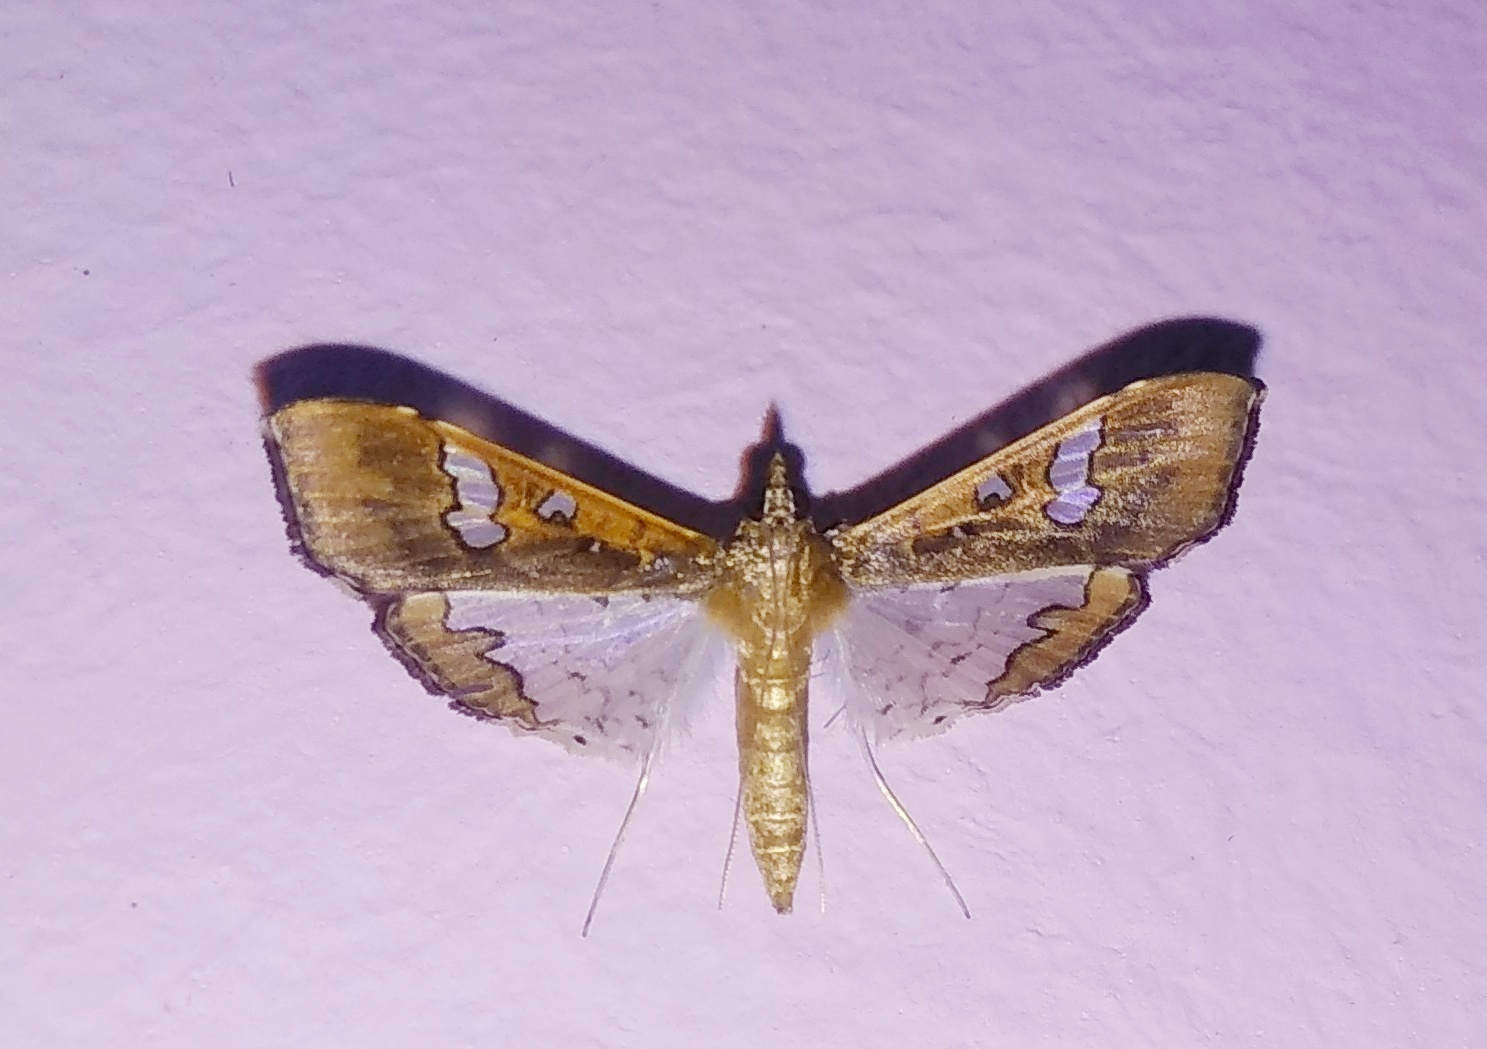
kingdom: Animalia
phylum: Arthropoda
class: Insecta
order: Lepidoptera
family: Crambidae
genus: Maruca
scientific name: Maruca vitrata
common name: Maruca pod borer
